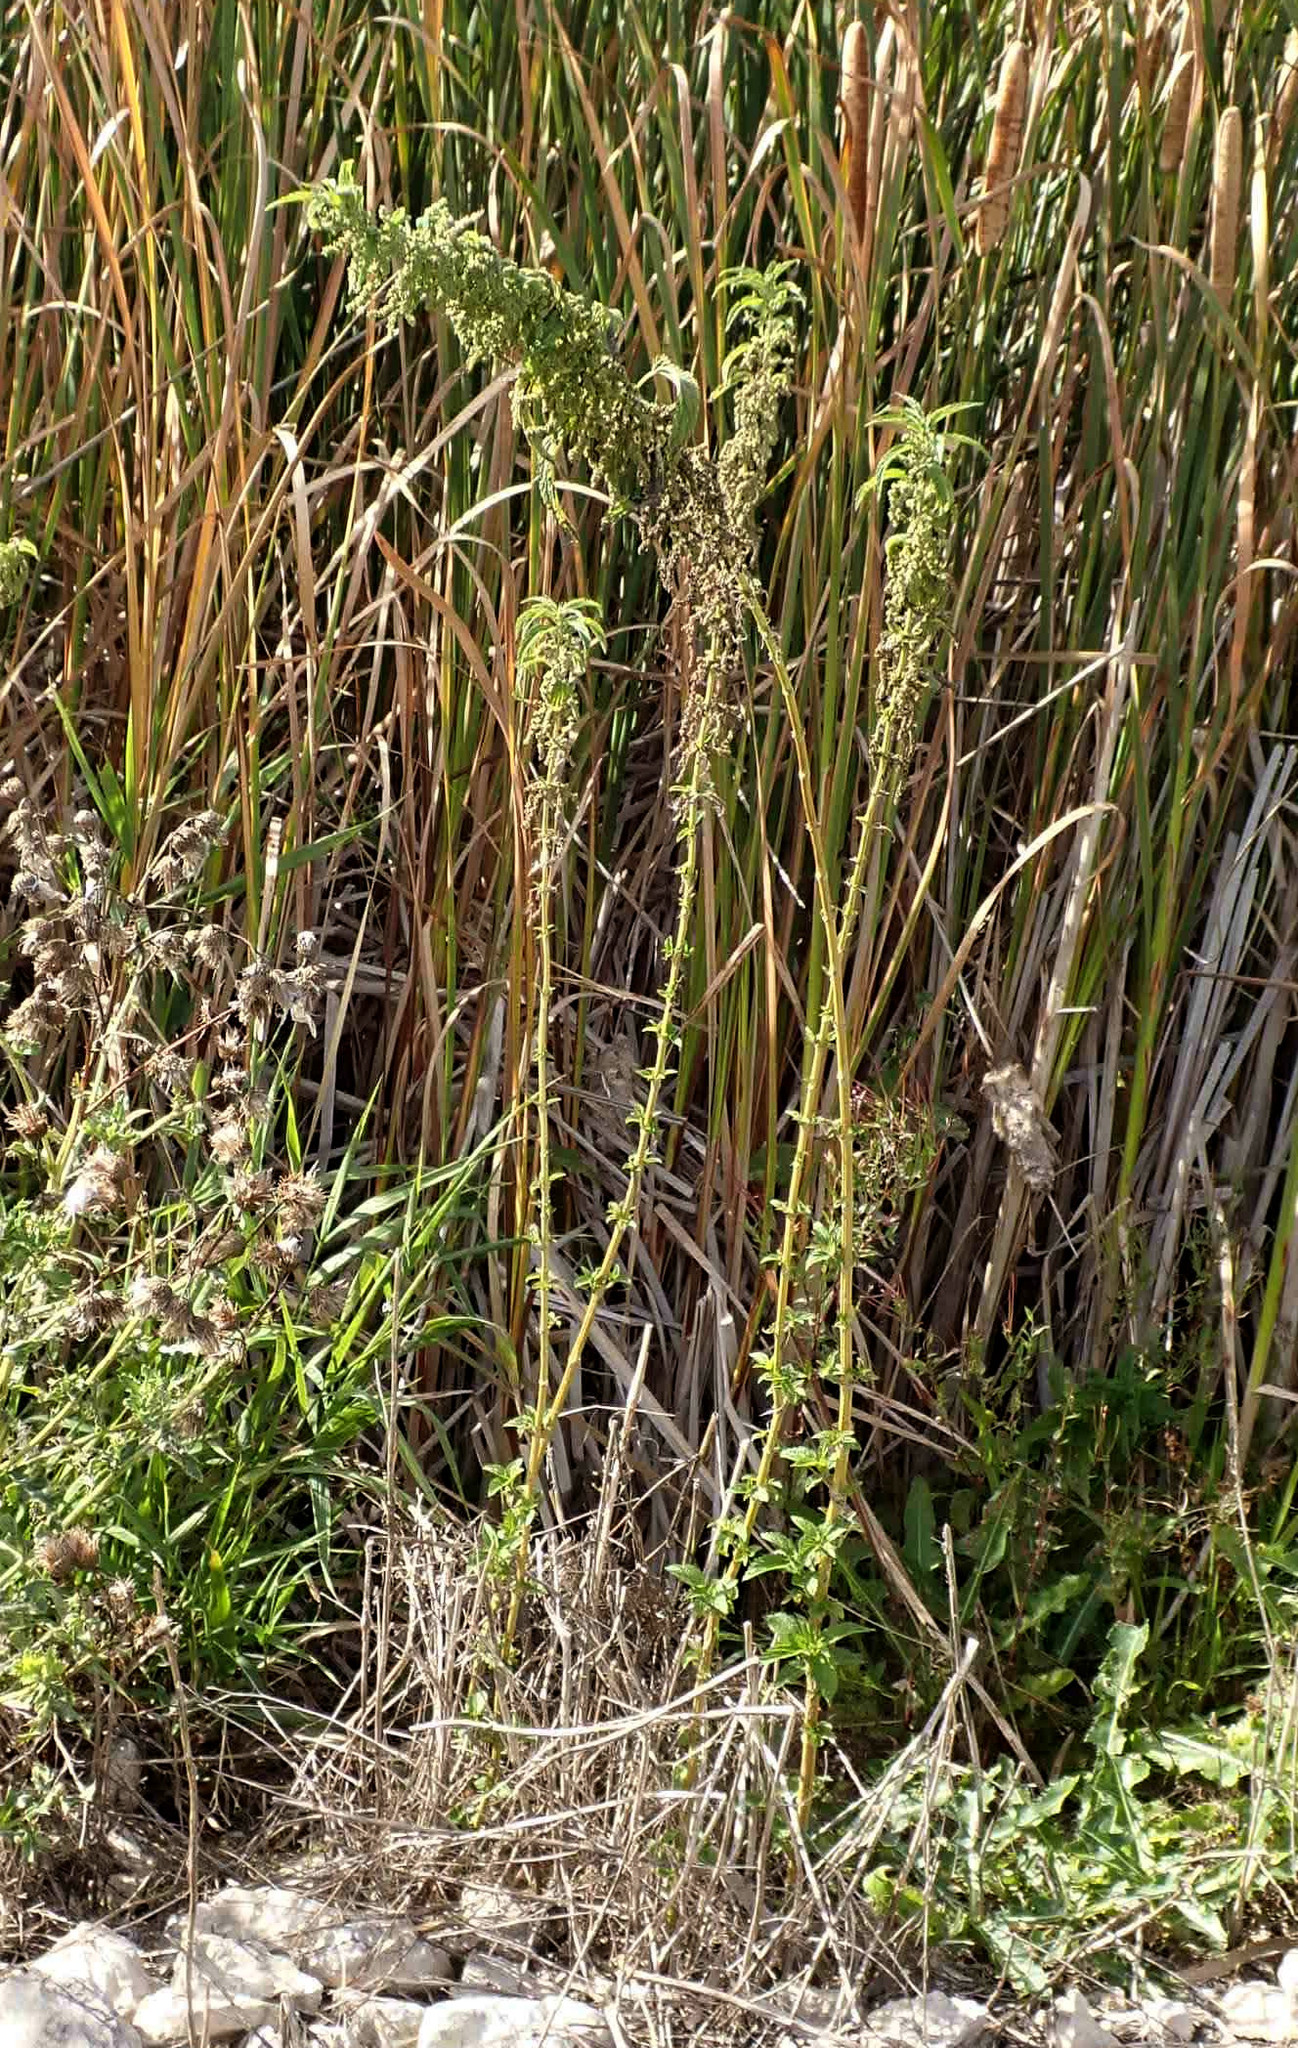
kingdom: Plantae
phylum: Tracheophyta
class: Magnoliopsida
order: Rosales
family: Urticaceae
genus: Urtica
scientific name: Urtica gracilis
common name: Slender stinging nettle
